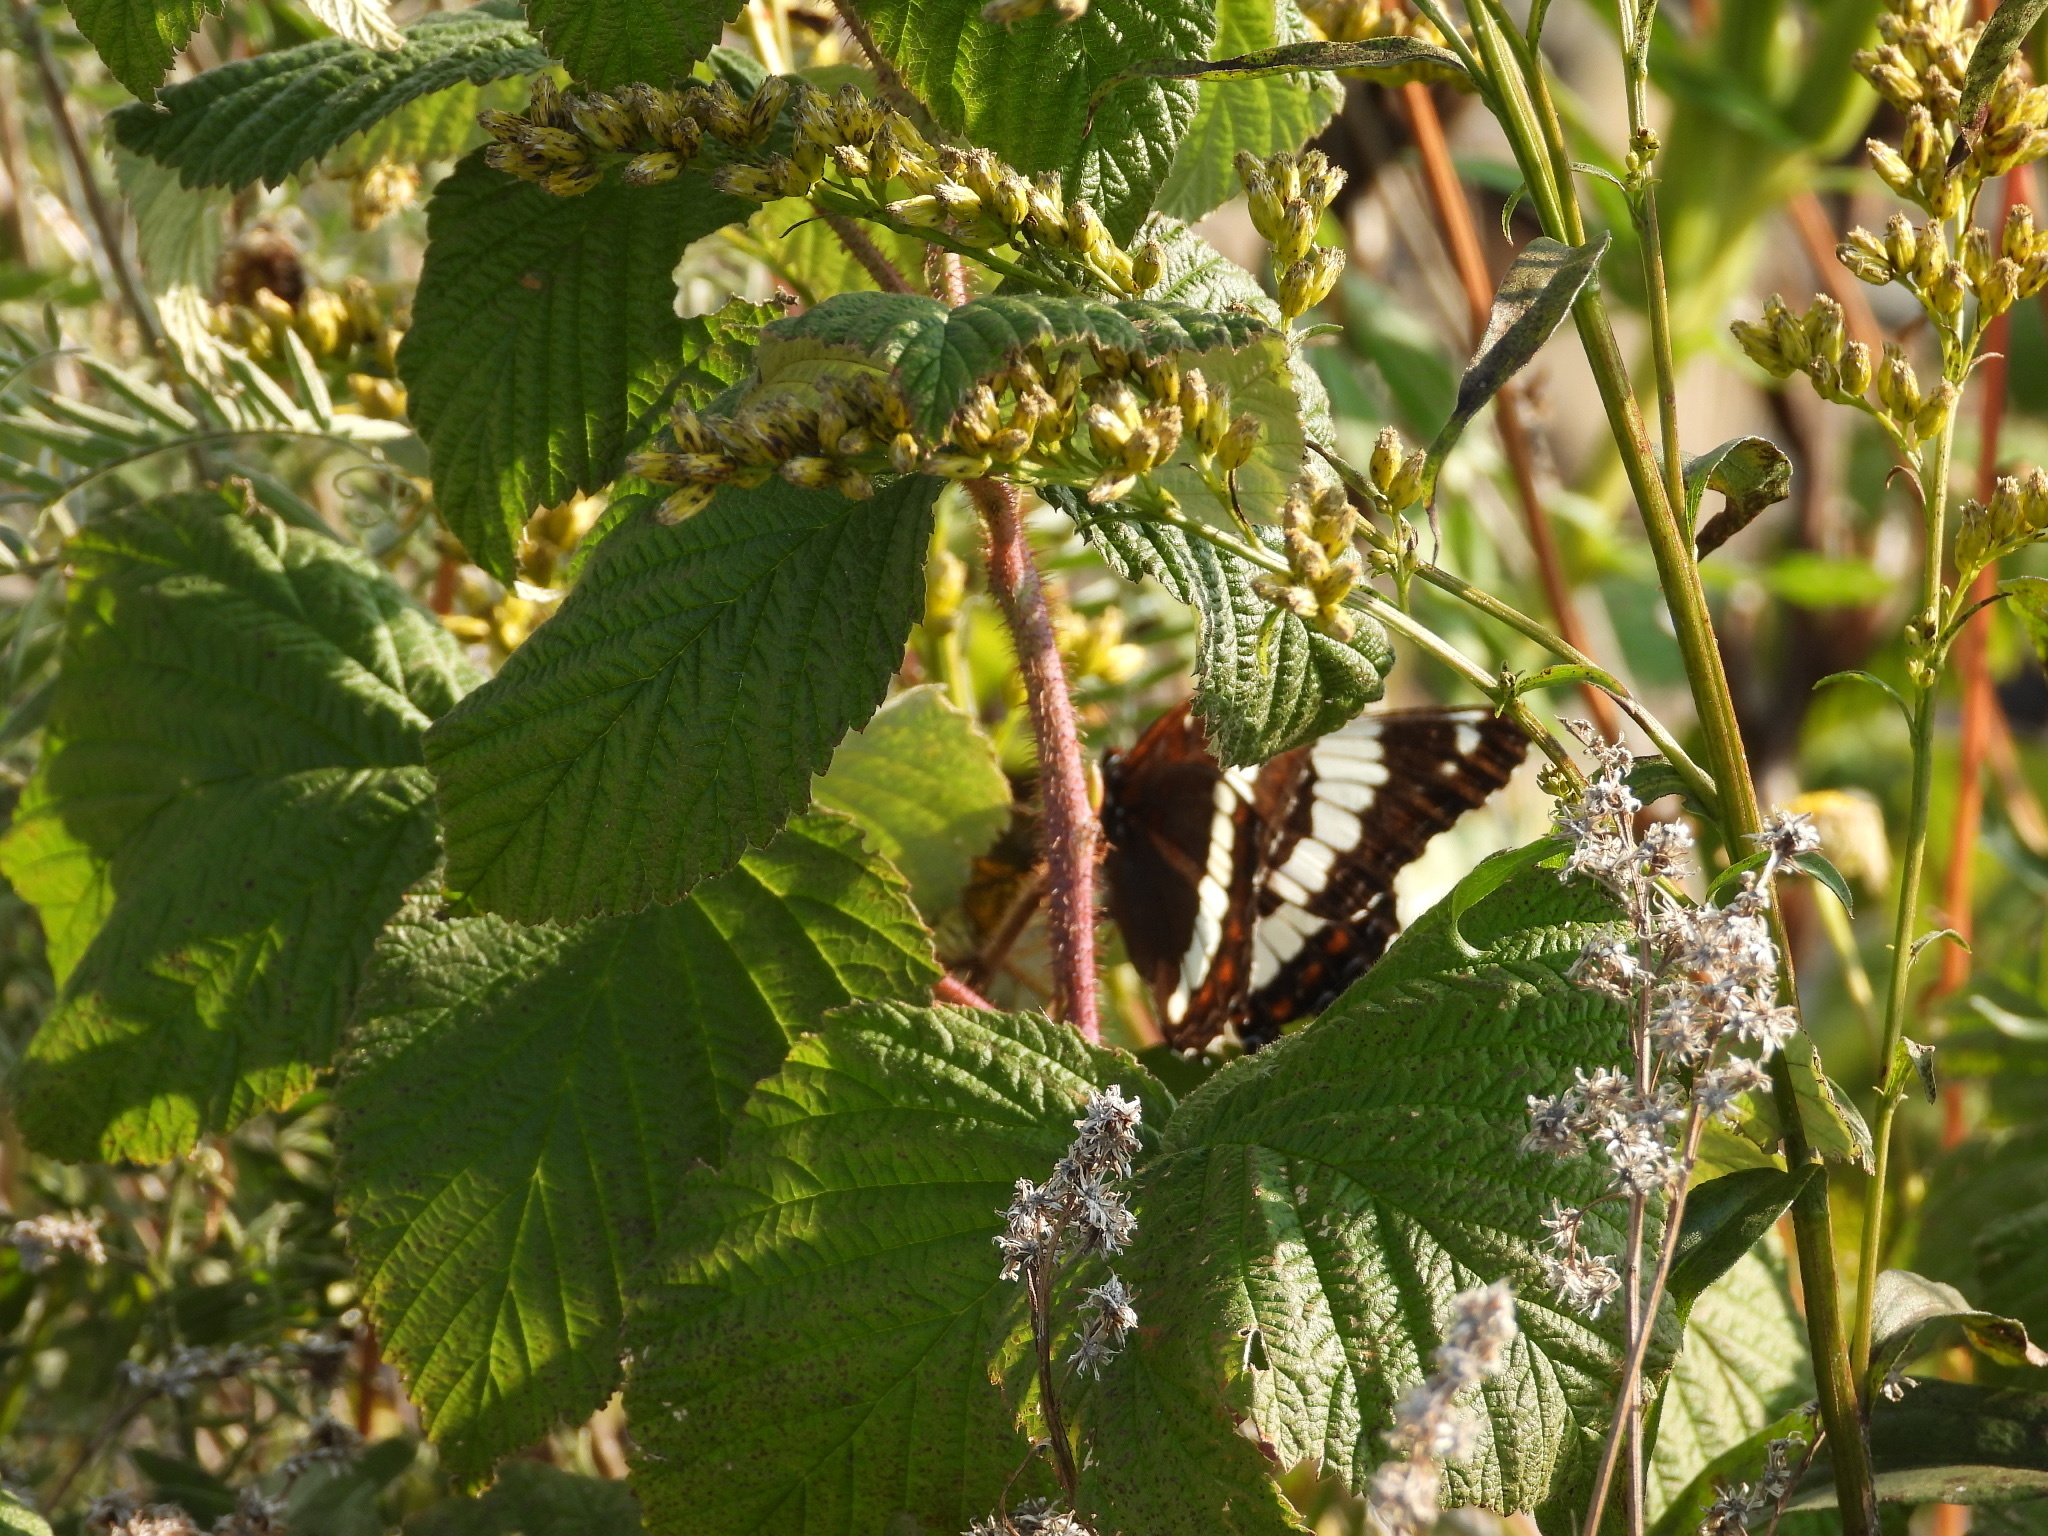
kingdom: Animalia
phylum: Arthropoda
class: Insecta
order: Lepidoptera
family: Nymphalidae
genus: Limenitis
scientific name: Limenitis arthemis
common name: Red-spotted admiral
